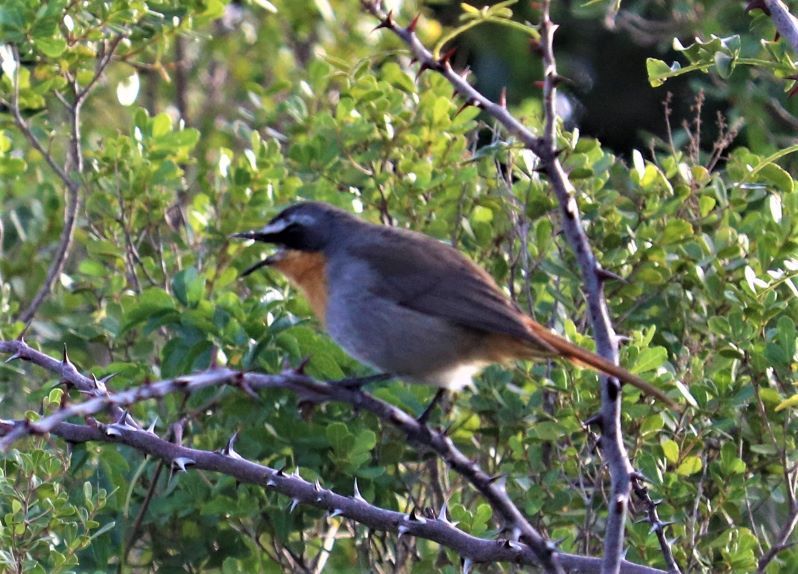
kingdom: Animalia
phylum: Chordata
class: Aves
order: Passeriformes
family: Muscicapidae
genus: Cossypha
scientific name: Cossypha caffra
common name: Cape robin-chat
